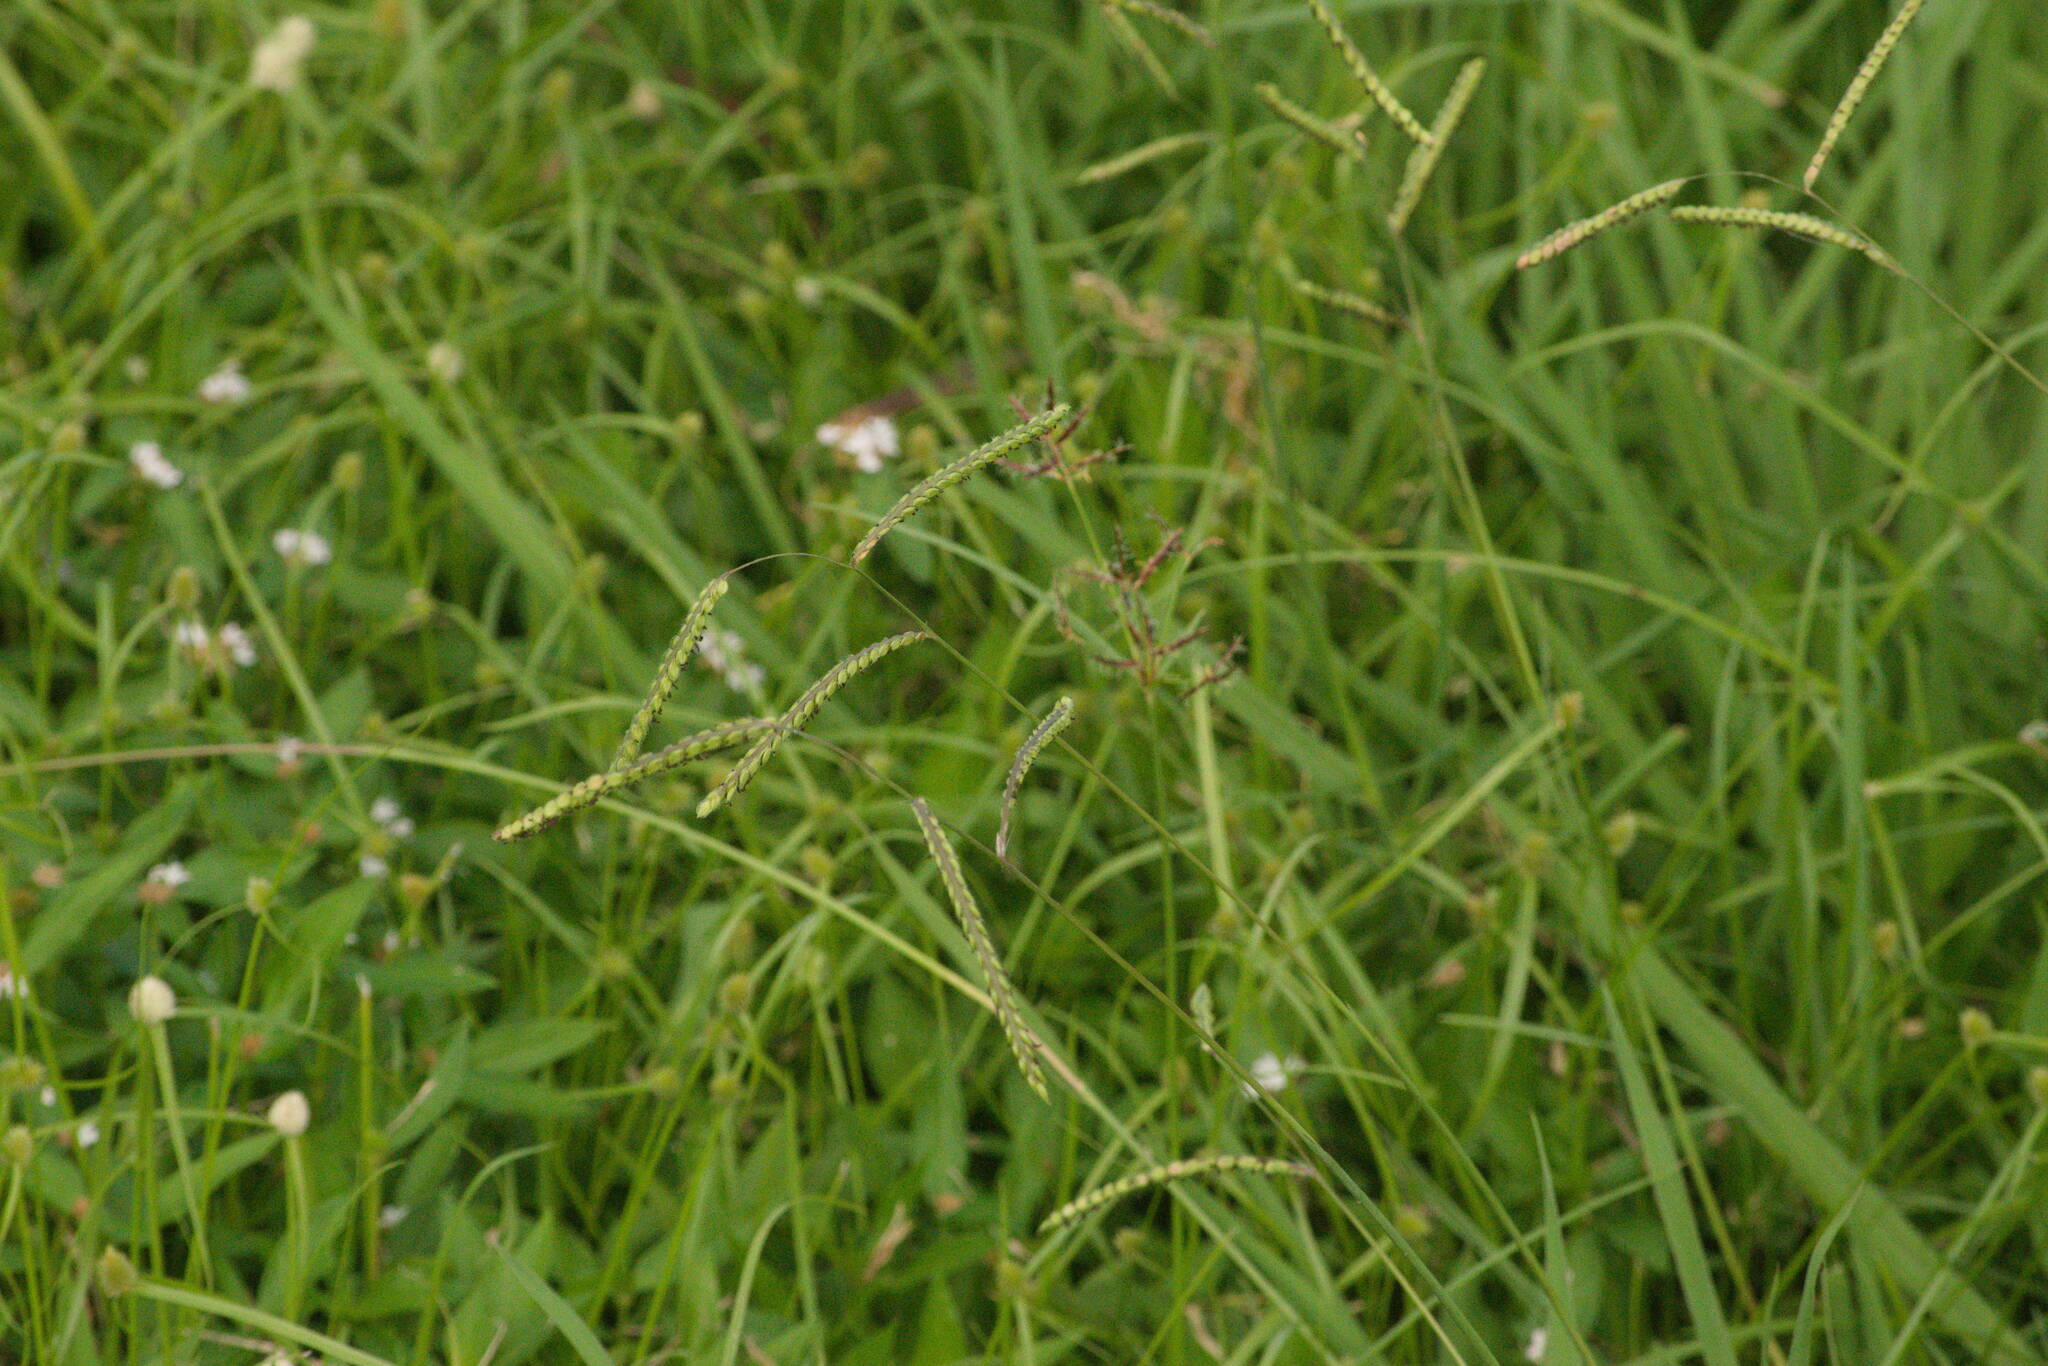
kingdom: Plantae
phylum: Tracheophyta
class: Liliopsida
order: Poales
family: Poaceae
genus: Paspalum
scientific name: Paspalum dilatatum
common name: Dallisgrass
